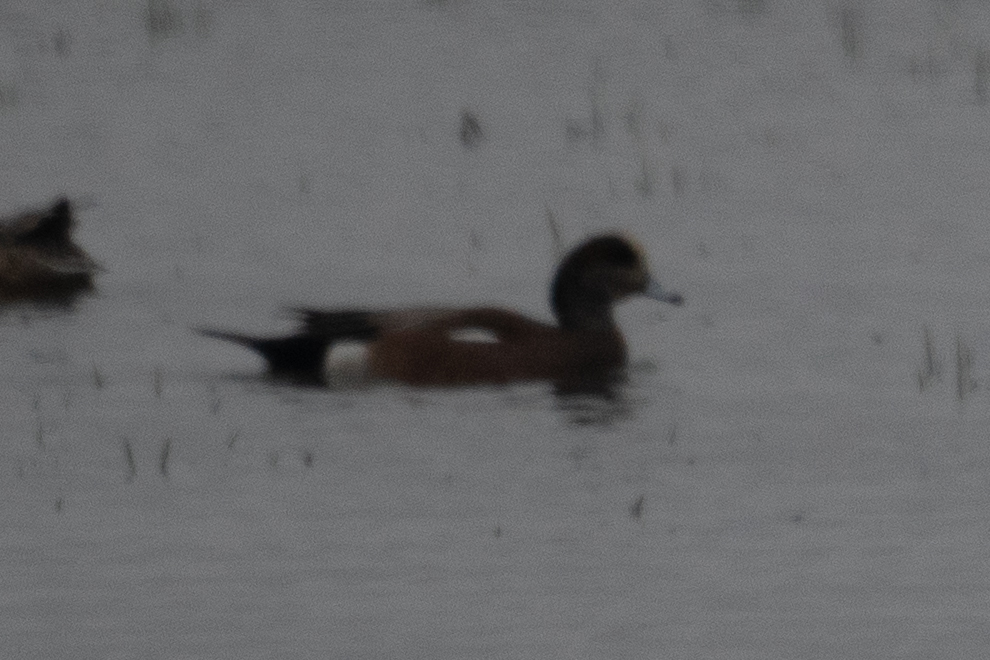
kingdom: Animalia
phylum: Chordata
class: Aves
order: Anseriformes
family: Anatidae
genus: Mareca
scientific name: Mareca americana
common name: American wigeon
